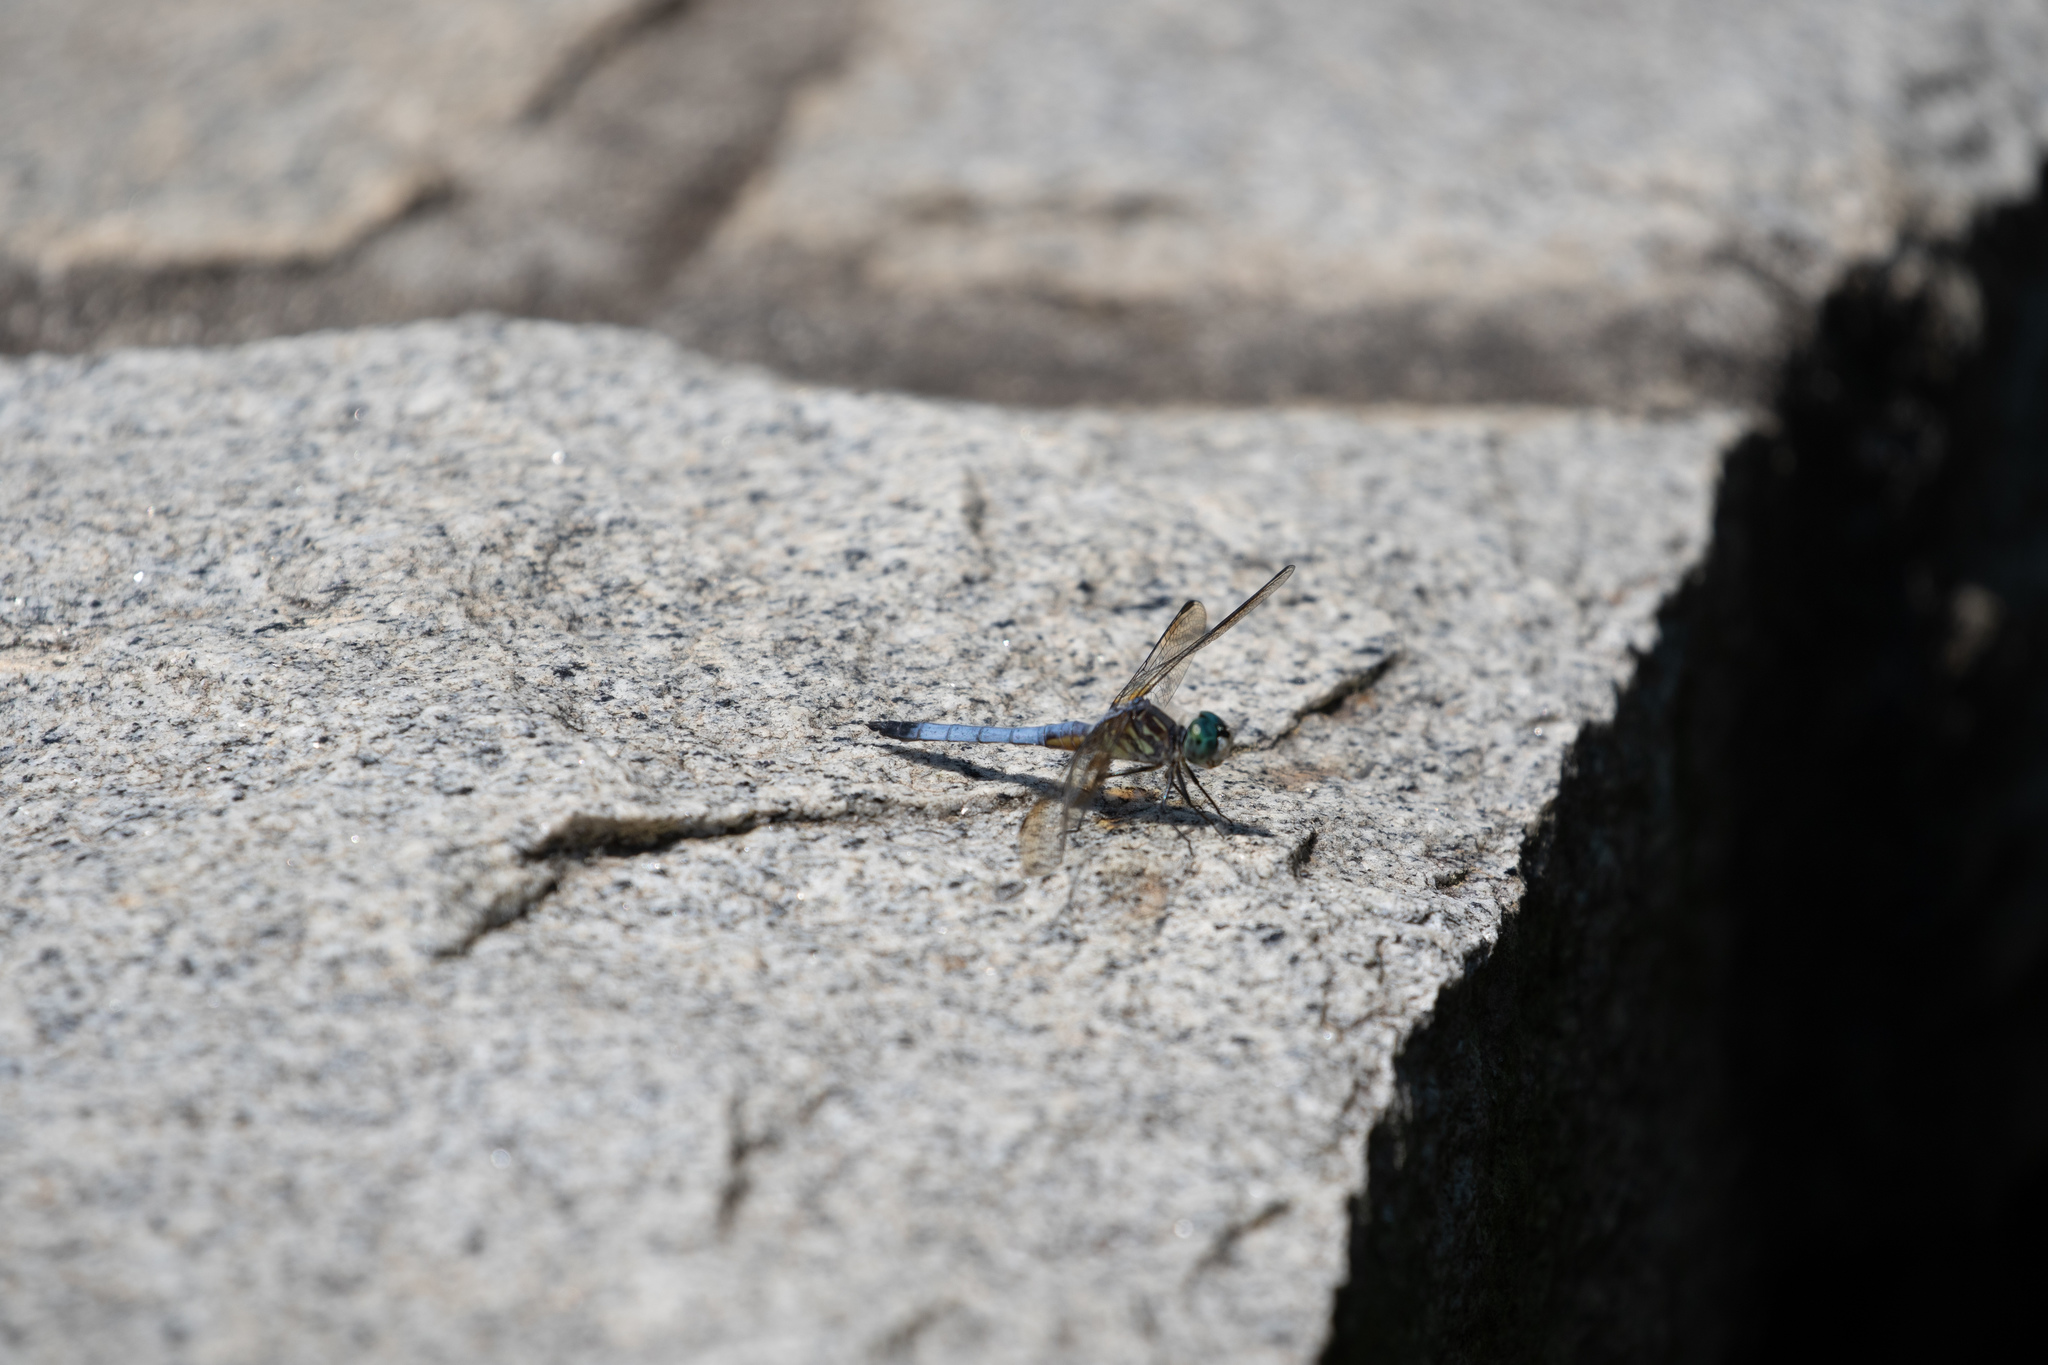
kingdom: Animalia
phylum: Arthropoda
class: Insecta
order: Odonata
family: Libellulidae
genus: Pachydiplax
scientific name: Pachydiplax longipennis
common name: Blue dasher
